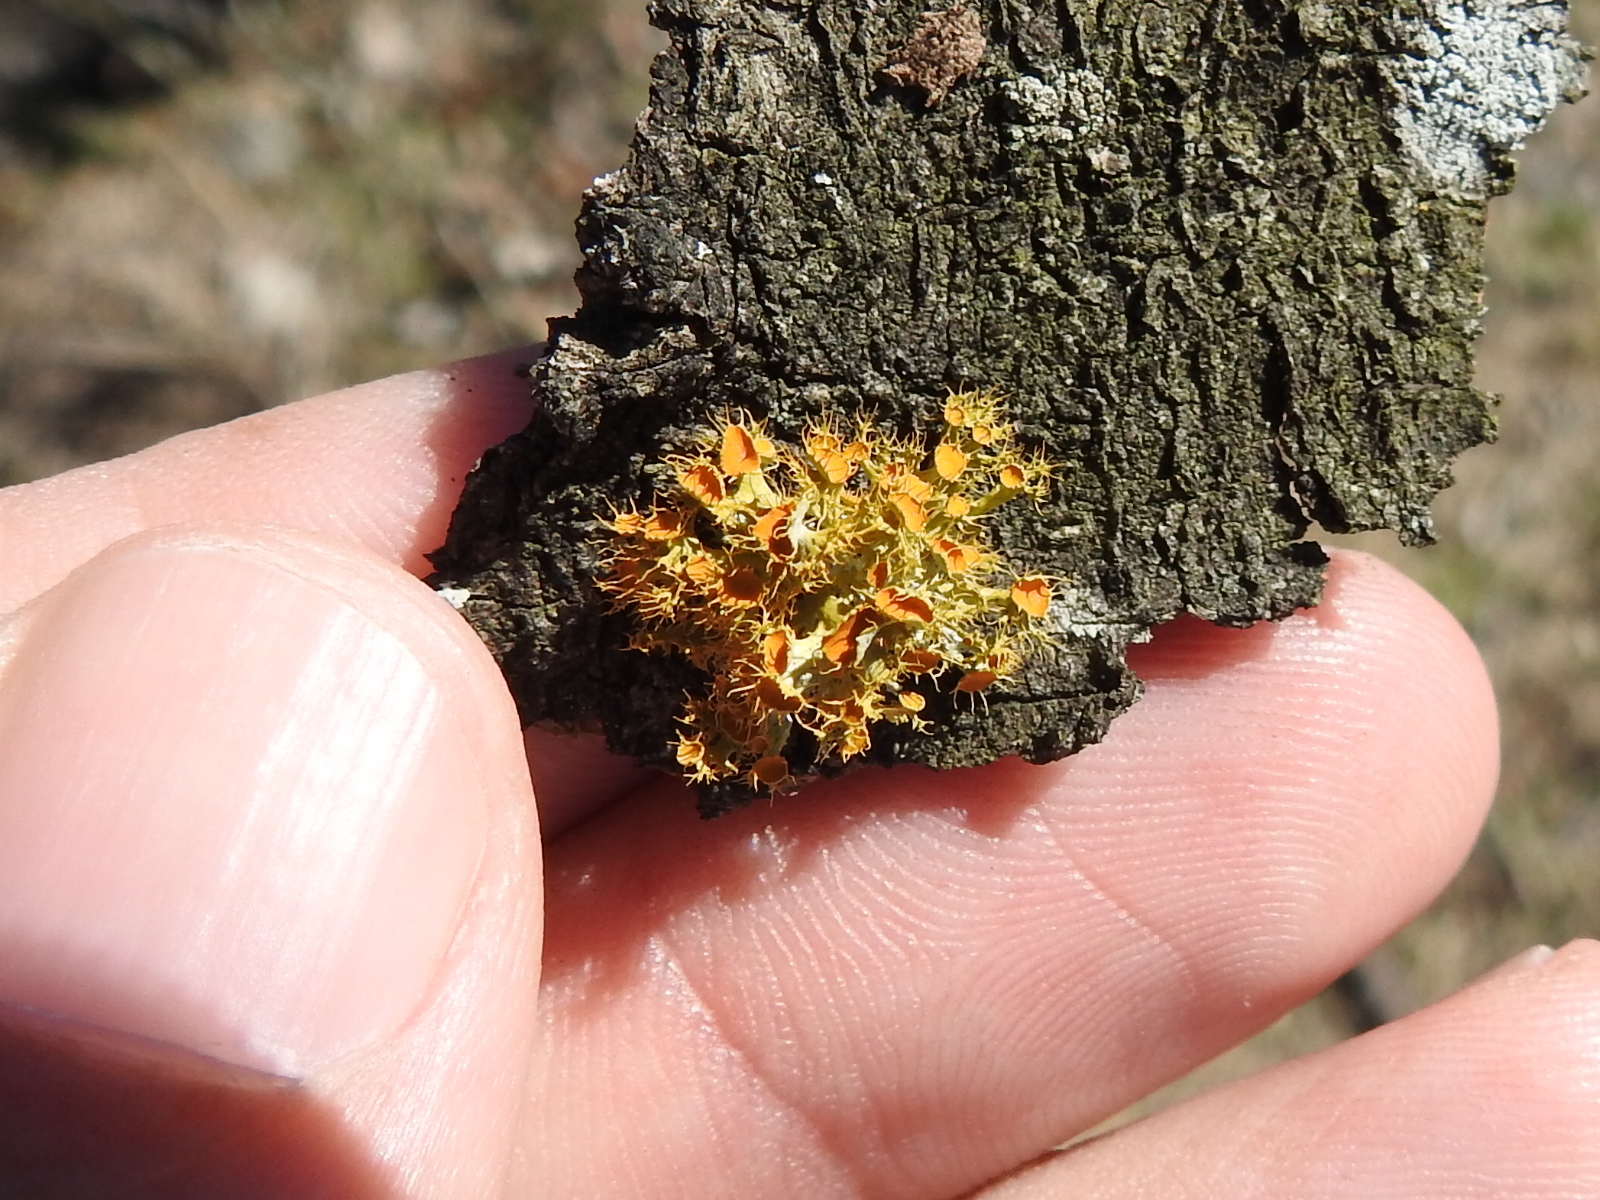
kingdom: Fungi
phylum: Ascomycota
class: Lecanoromycetes
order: Teloschistales
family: Teloschistaceae
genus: Niorma
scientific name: Niorma chrysophthalma
